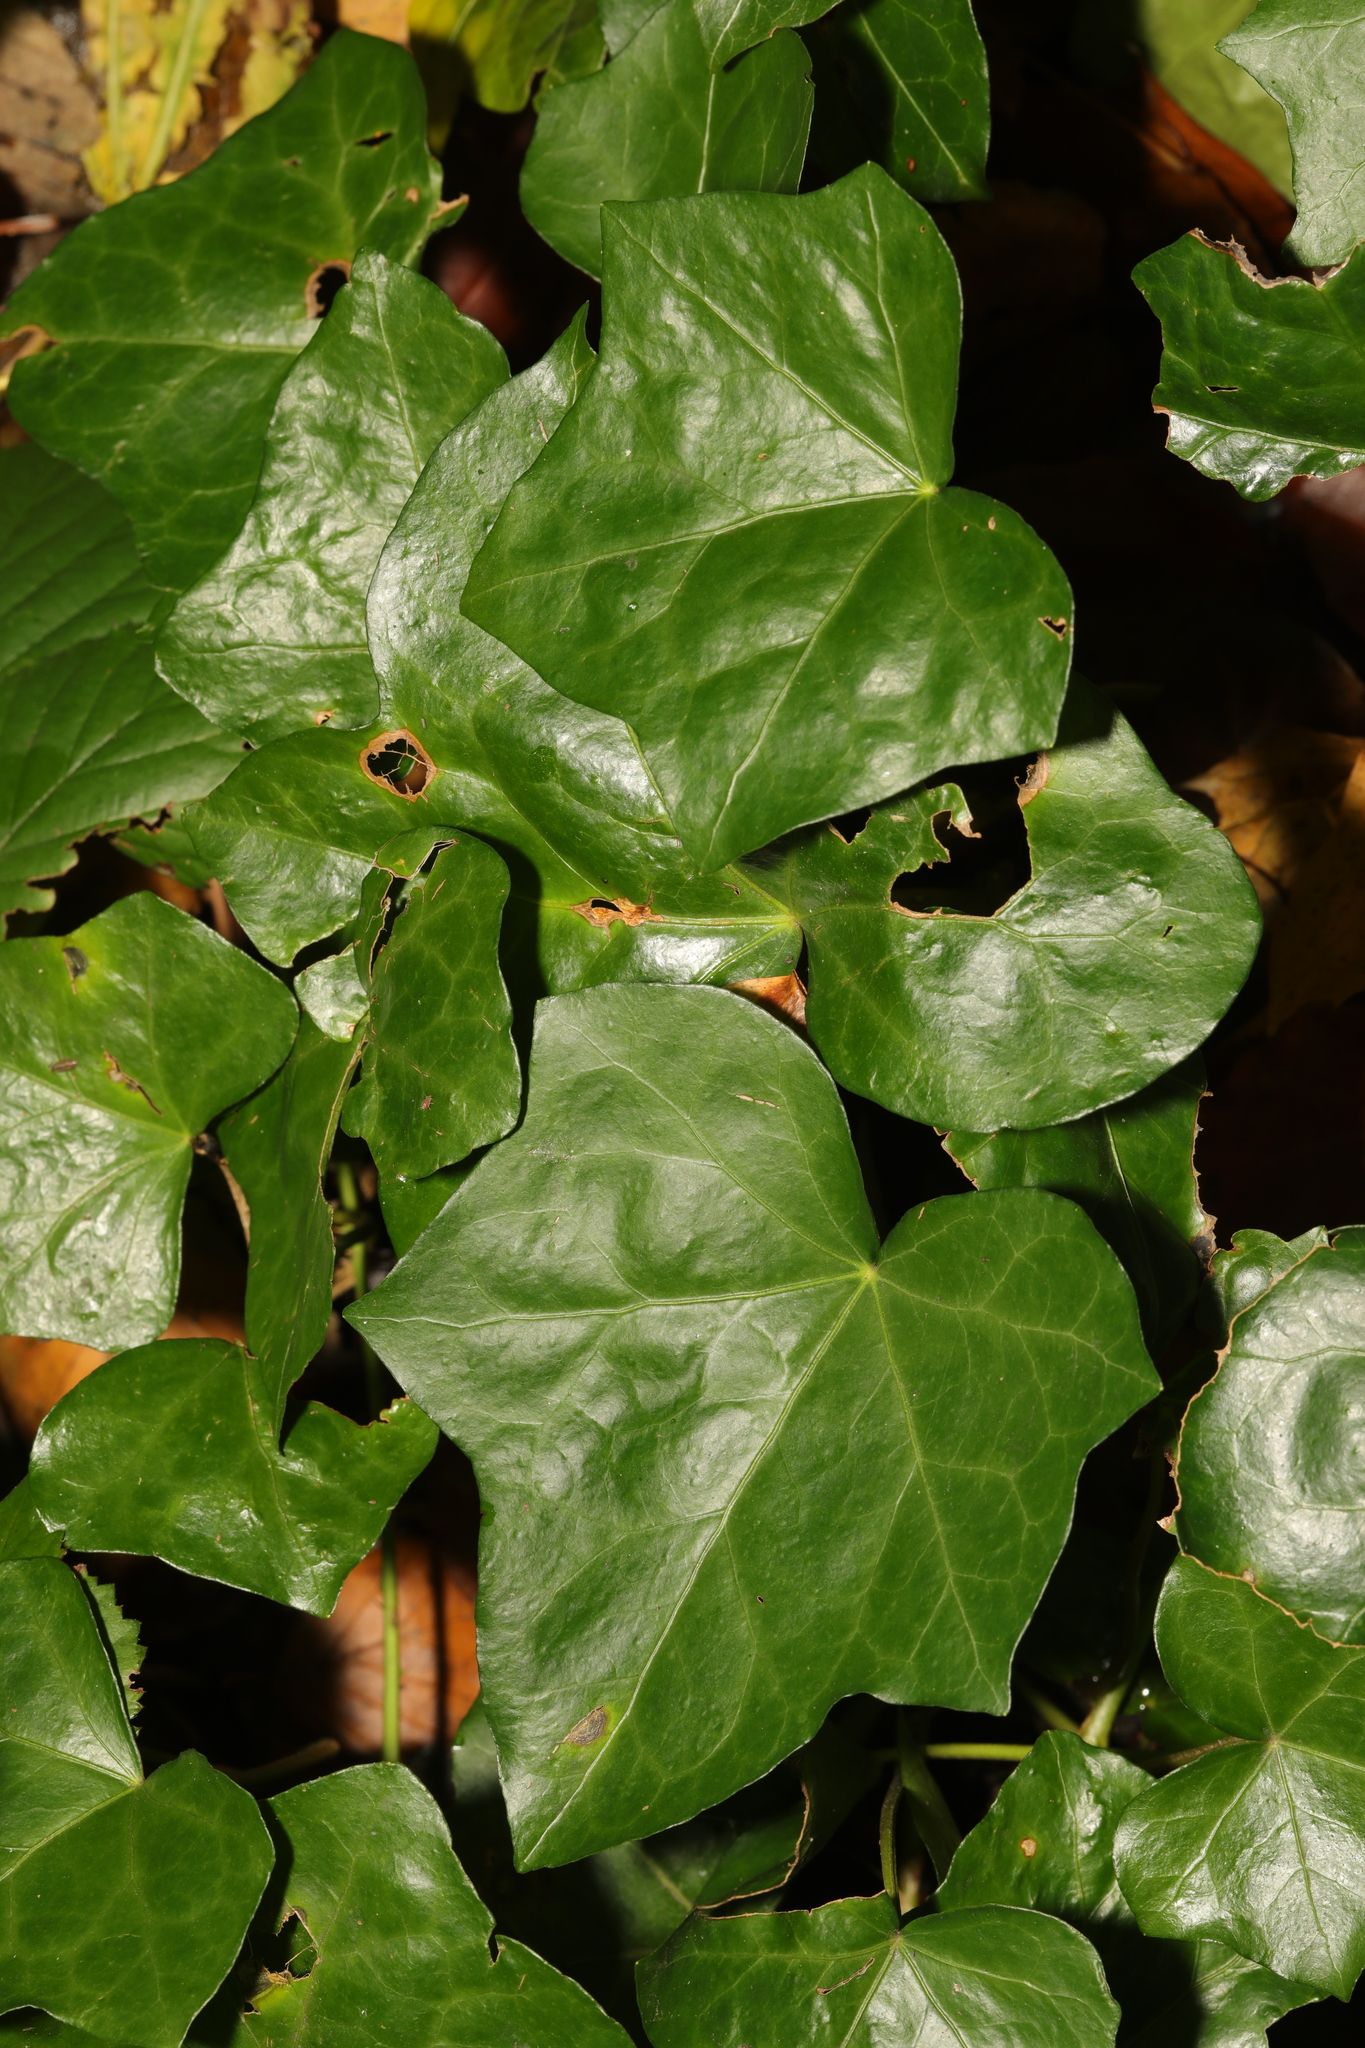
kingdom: Plantae
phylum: Tracheophyta
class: Magnoliopsida
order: Apiales
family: Araliaceae
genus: Hedera
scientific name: Hedera helix
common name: Ivy
